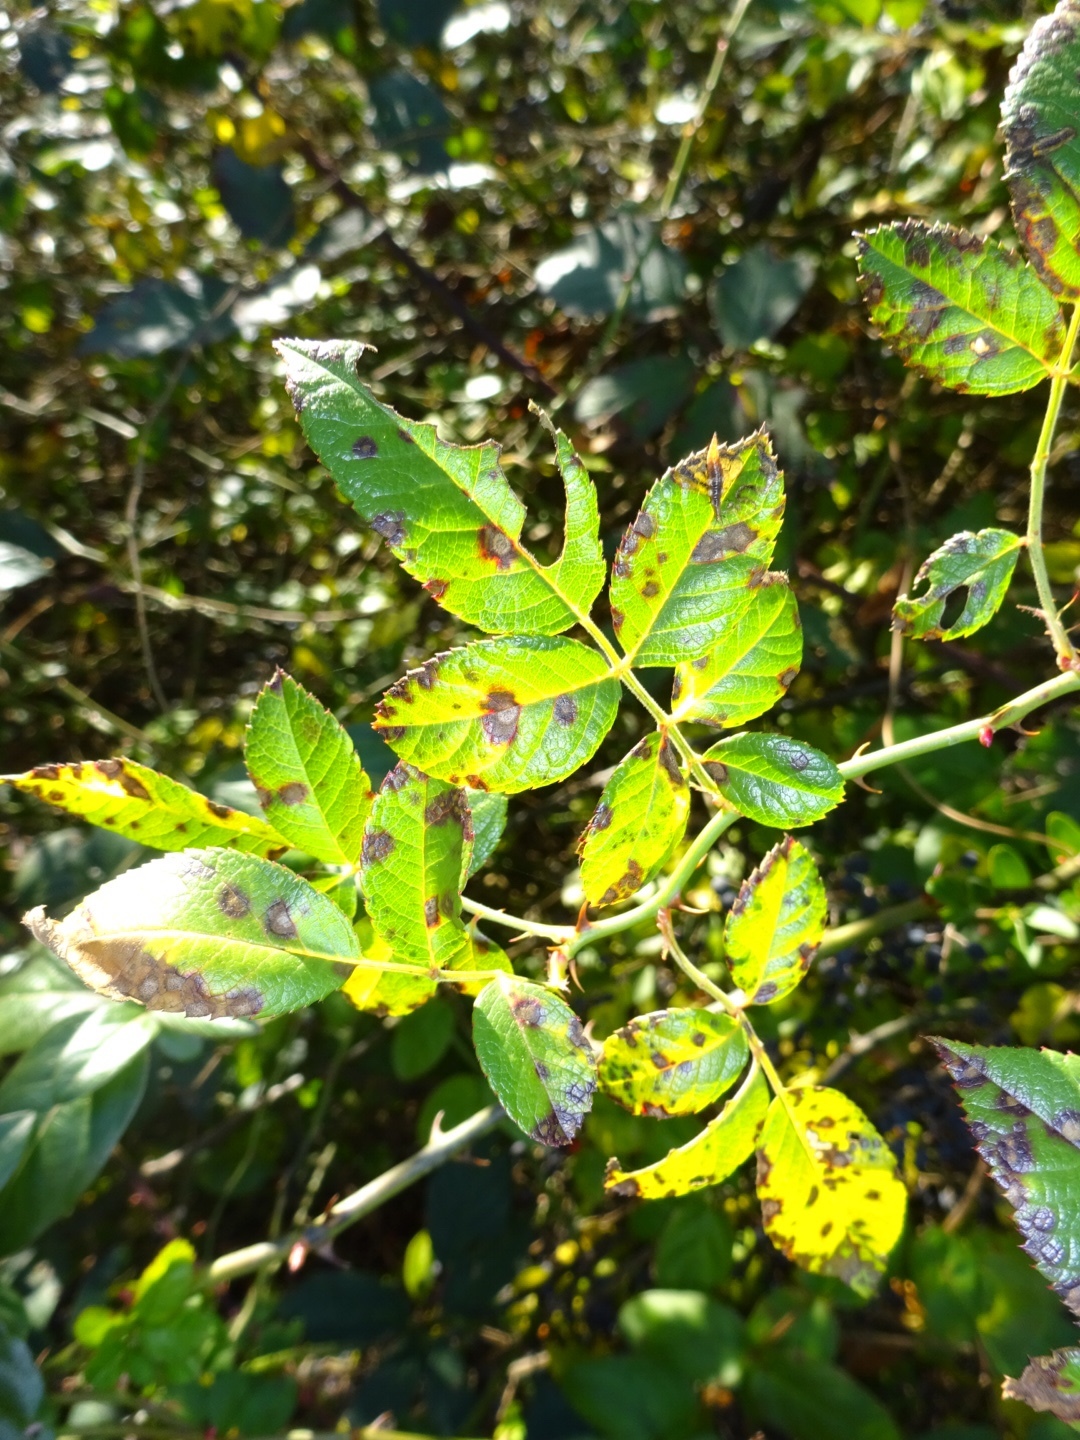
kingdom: Plantae
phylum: Tracheophyta
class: Magnoliopsida
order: Rosales
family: Rosaceae
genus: Rosa
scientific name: Rosa multiflora
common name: Multiflora rose
